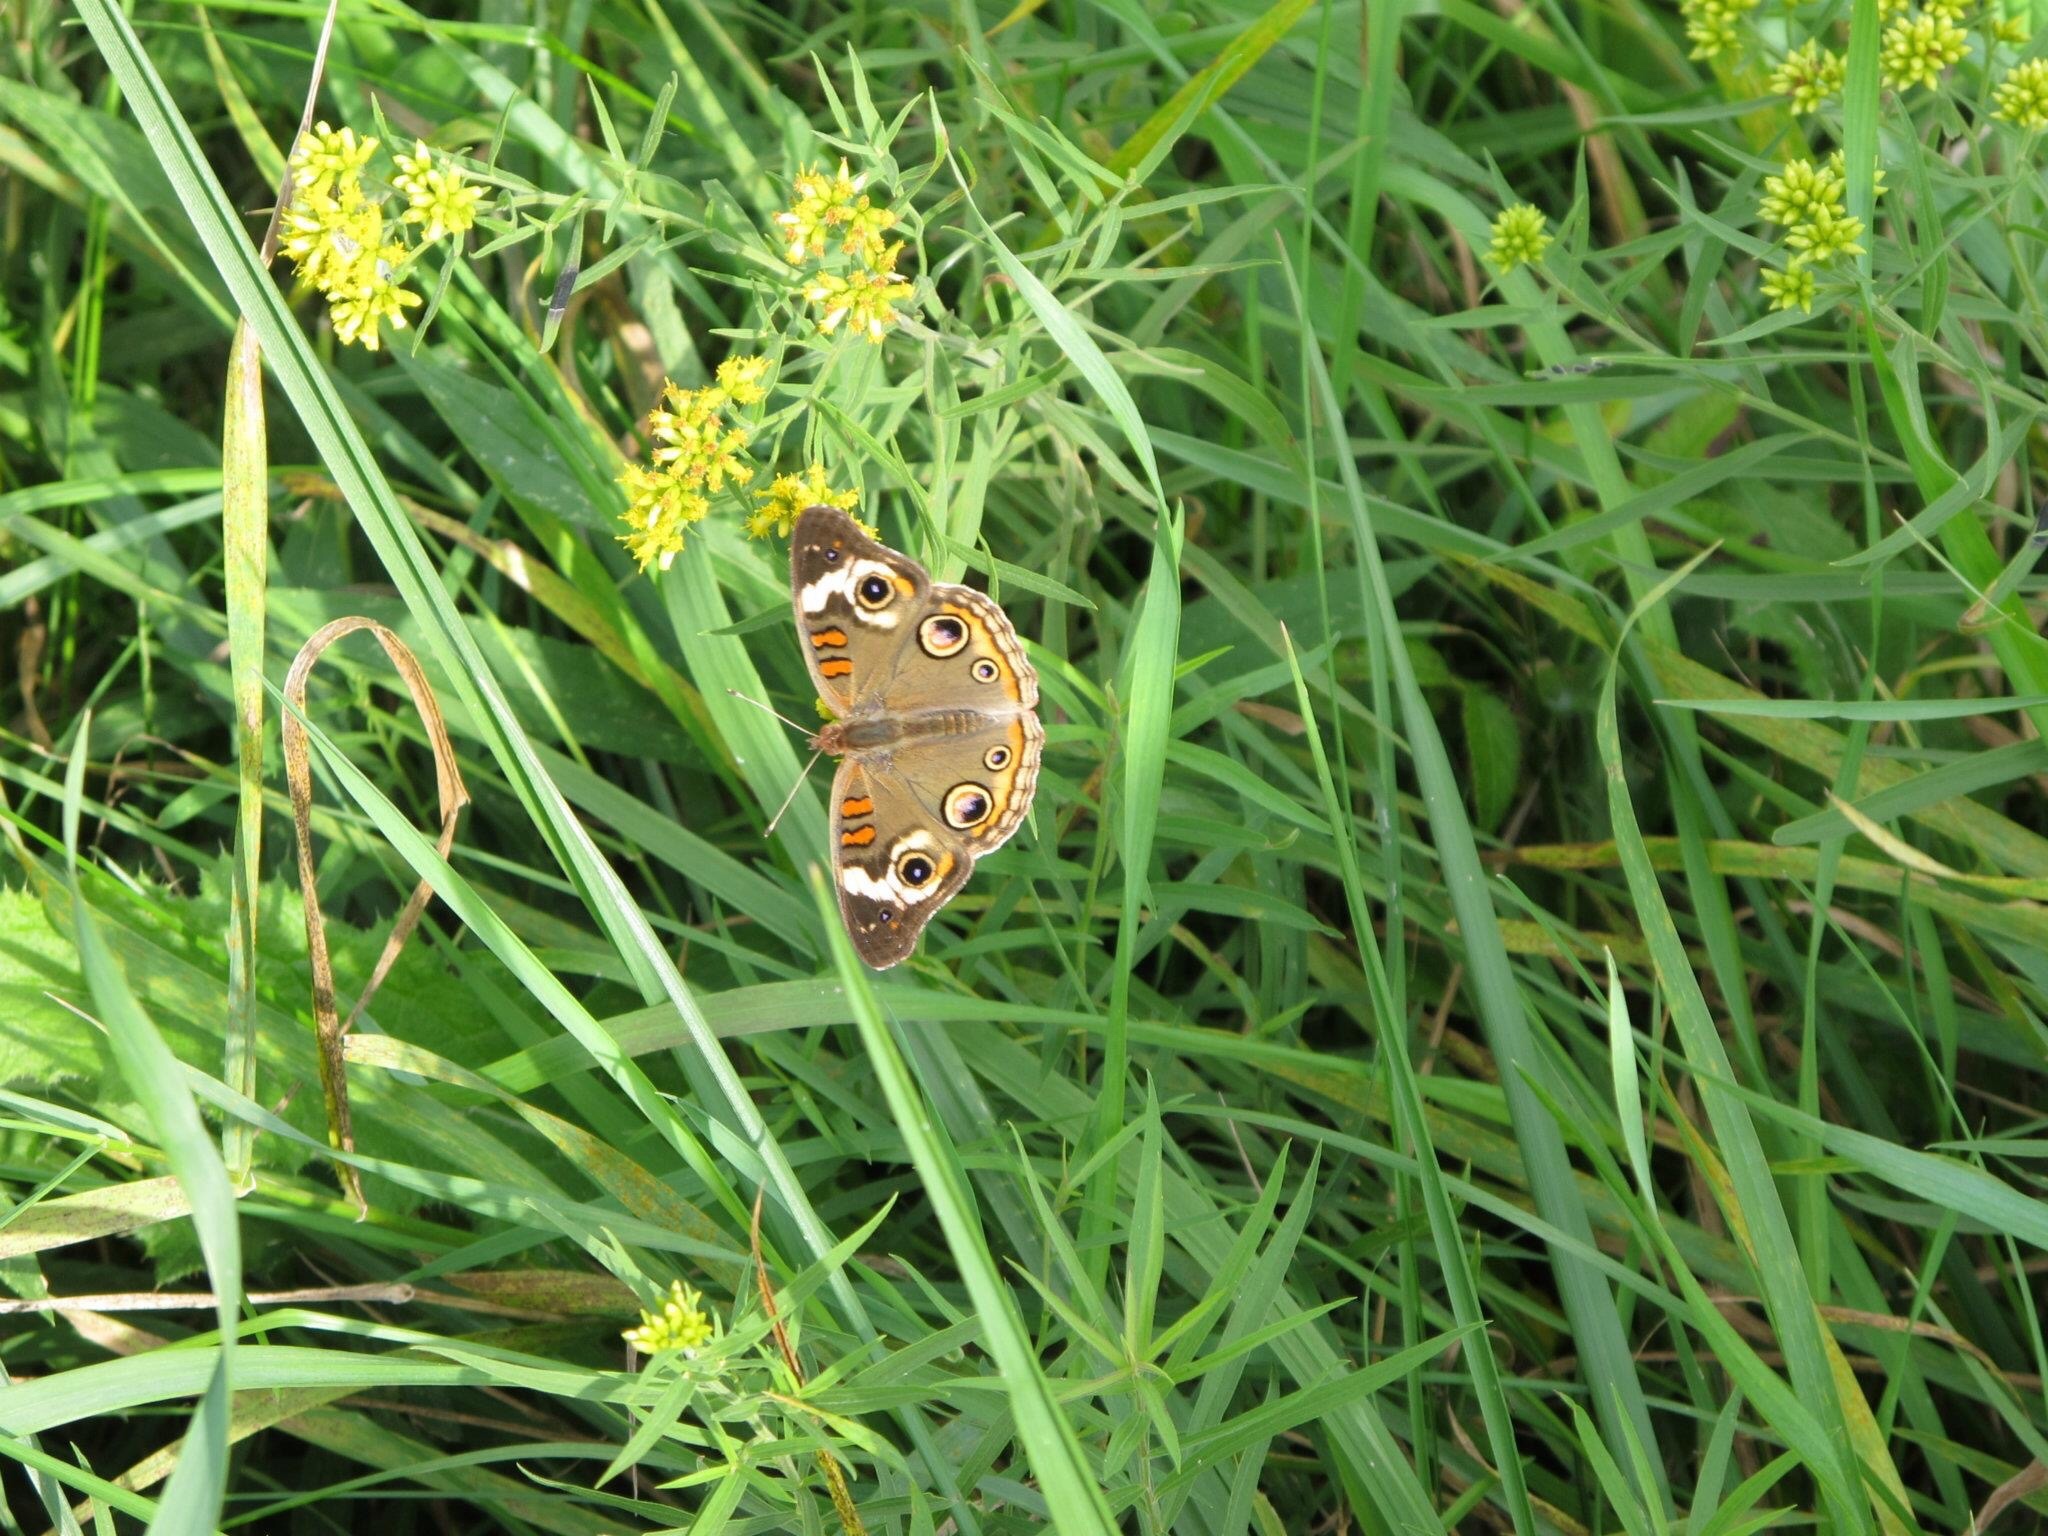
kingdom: Animalia
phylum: Arthropoda
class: Insecta
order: Lepidoptera
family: Nymphalidae
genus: Junonia
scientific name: Junonia coenia
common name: Common buckeye
